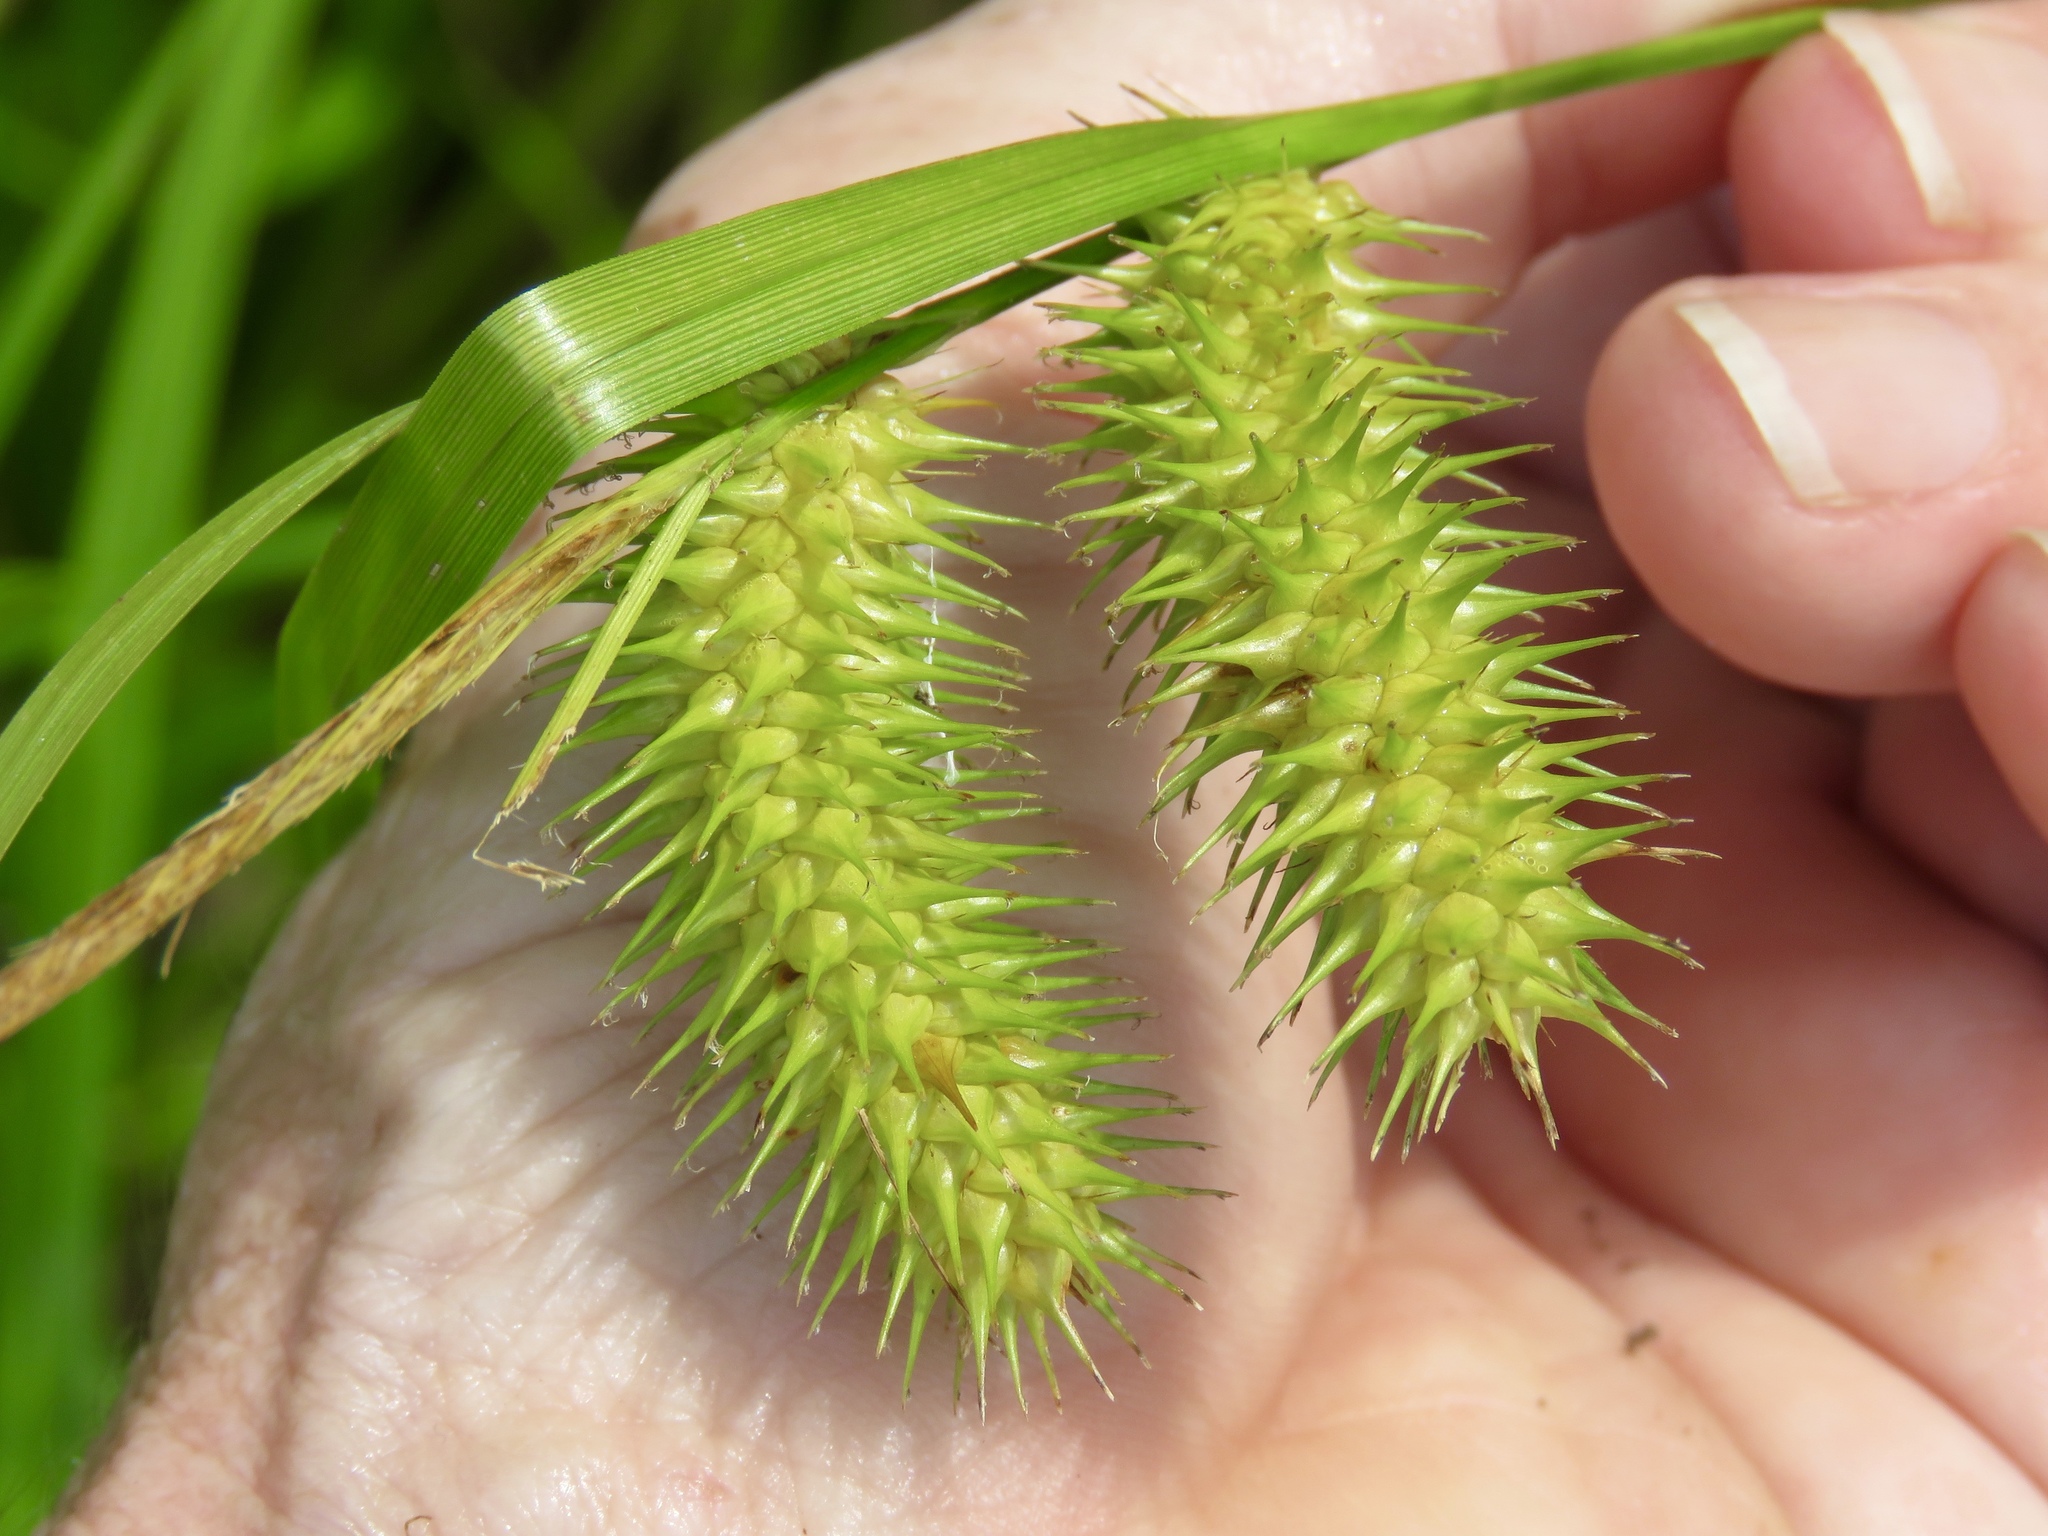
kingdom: Plantae
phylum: Tracheophyta
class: Liliopsida
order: Poales
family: Cyperaceae
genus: Carex
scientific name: Carex lurida
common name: Sallow sedge
